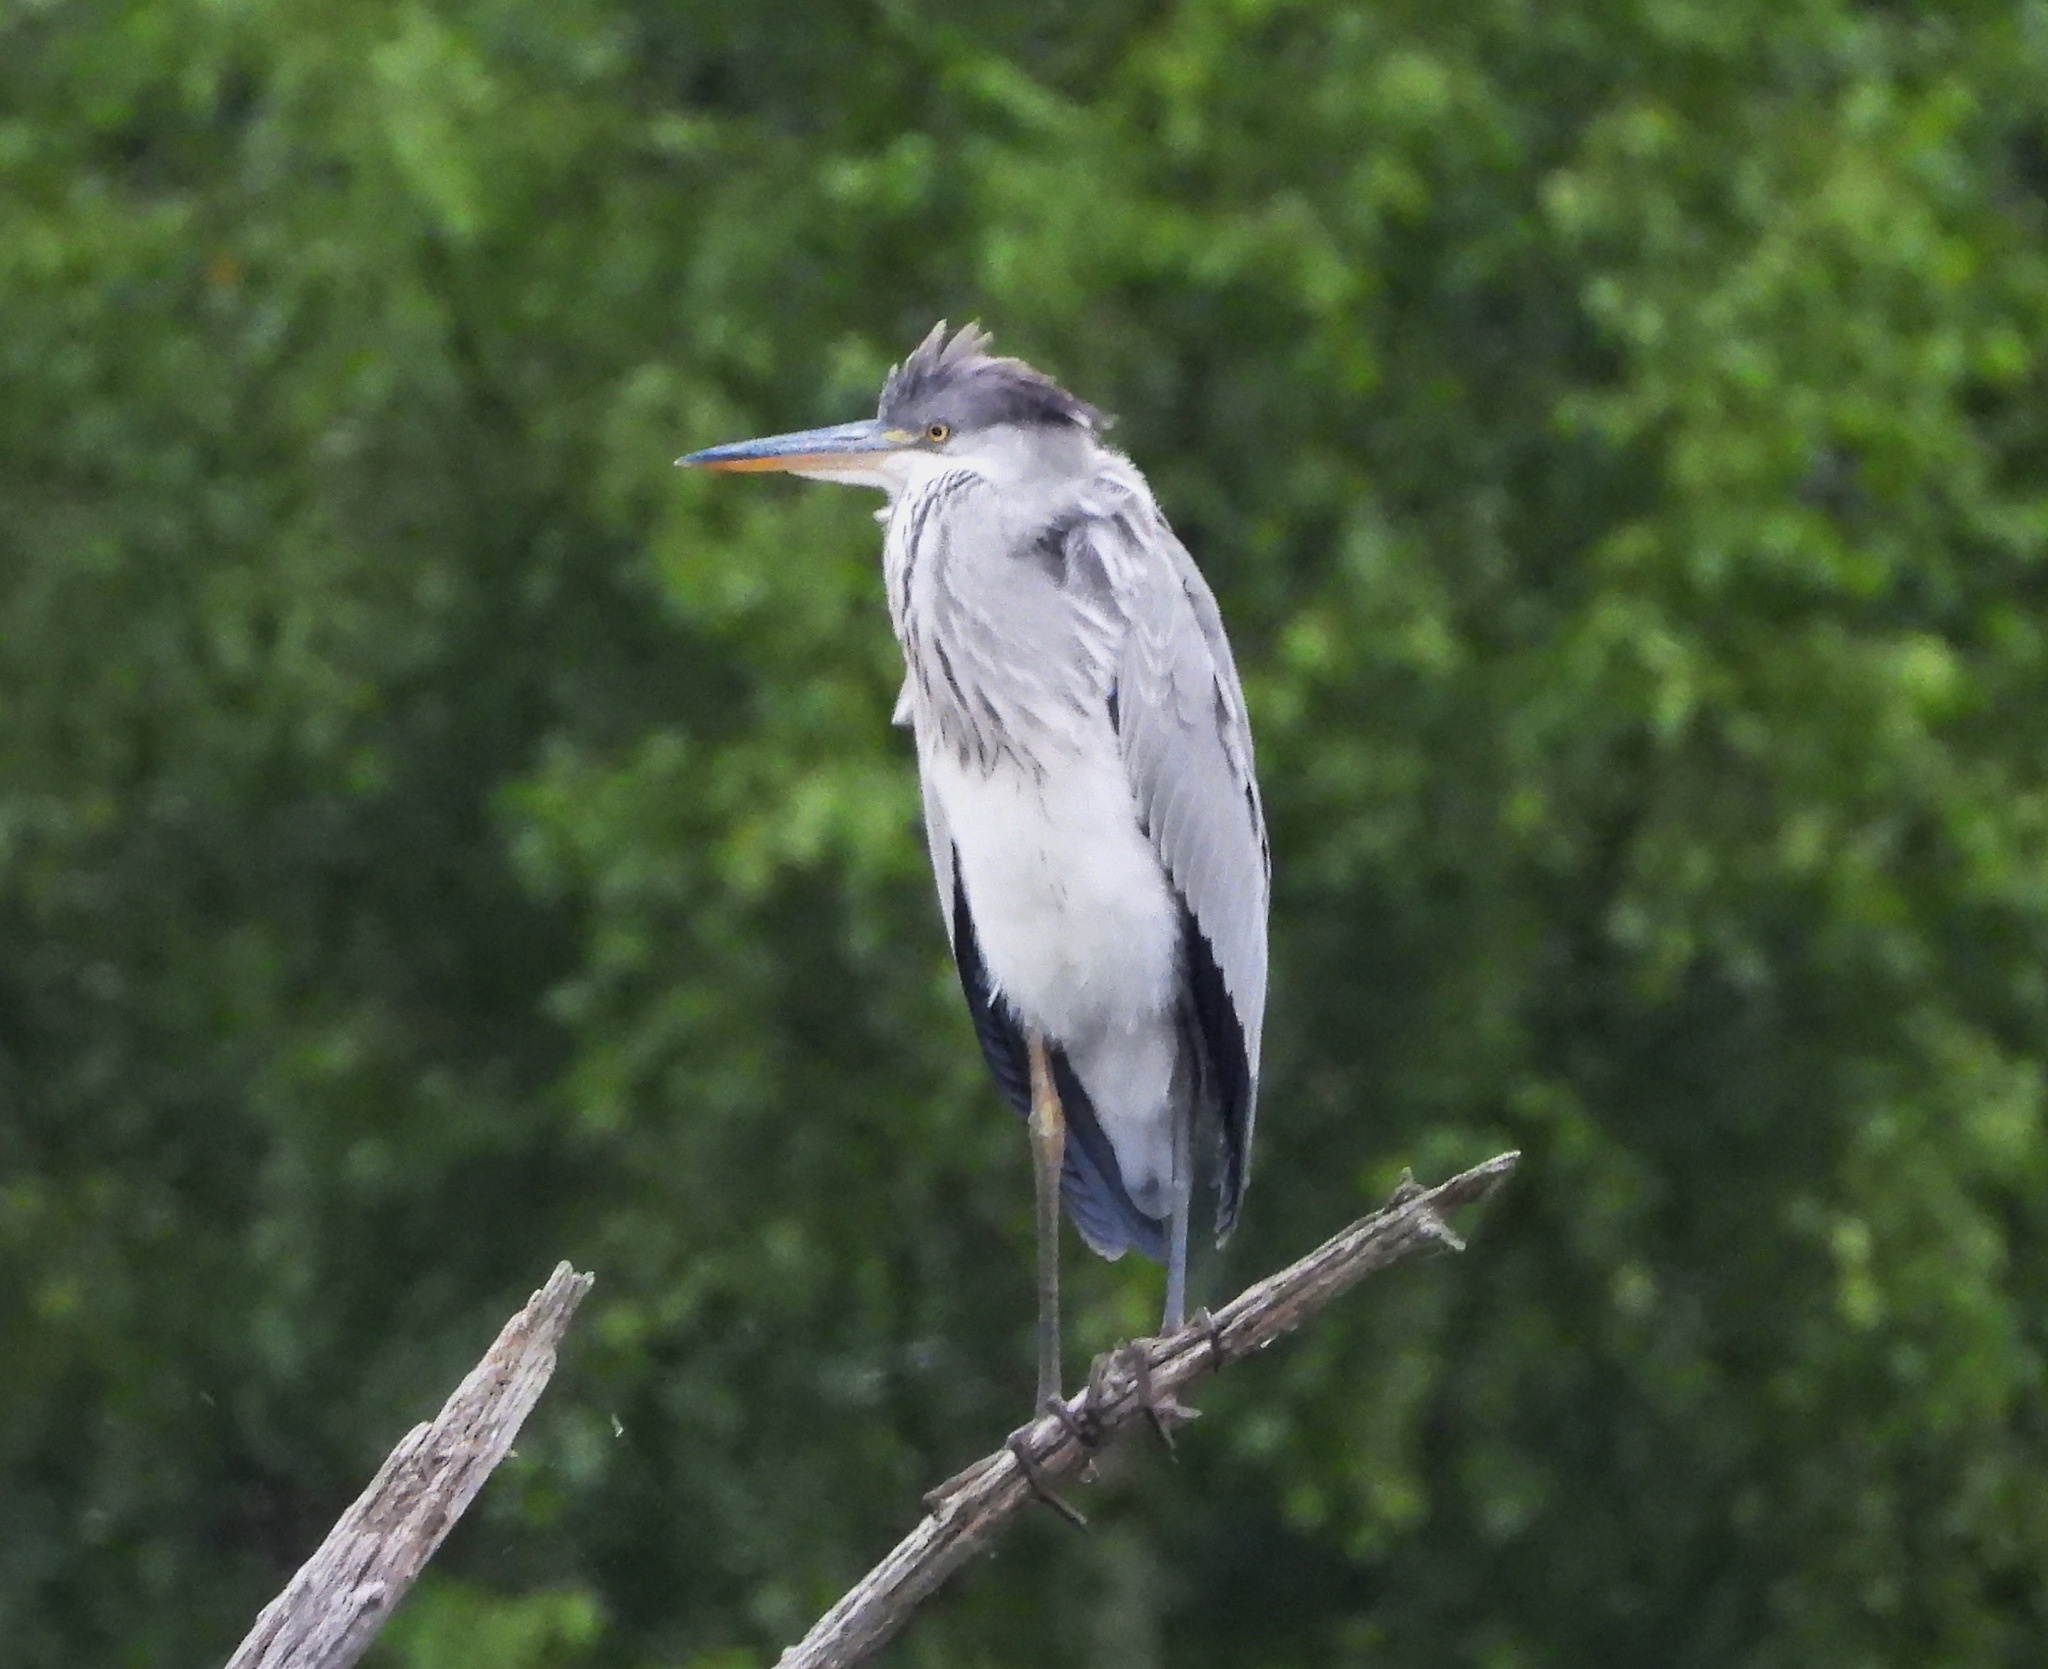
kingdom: Animalia
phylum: Chordata
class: Aves
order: Pelecaniformes
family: Ardeidae
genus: Ardea
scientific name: Ardea cinerea
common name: Grey heron
